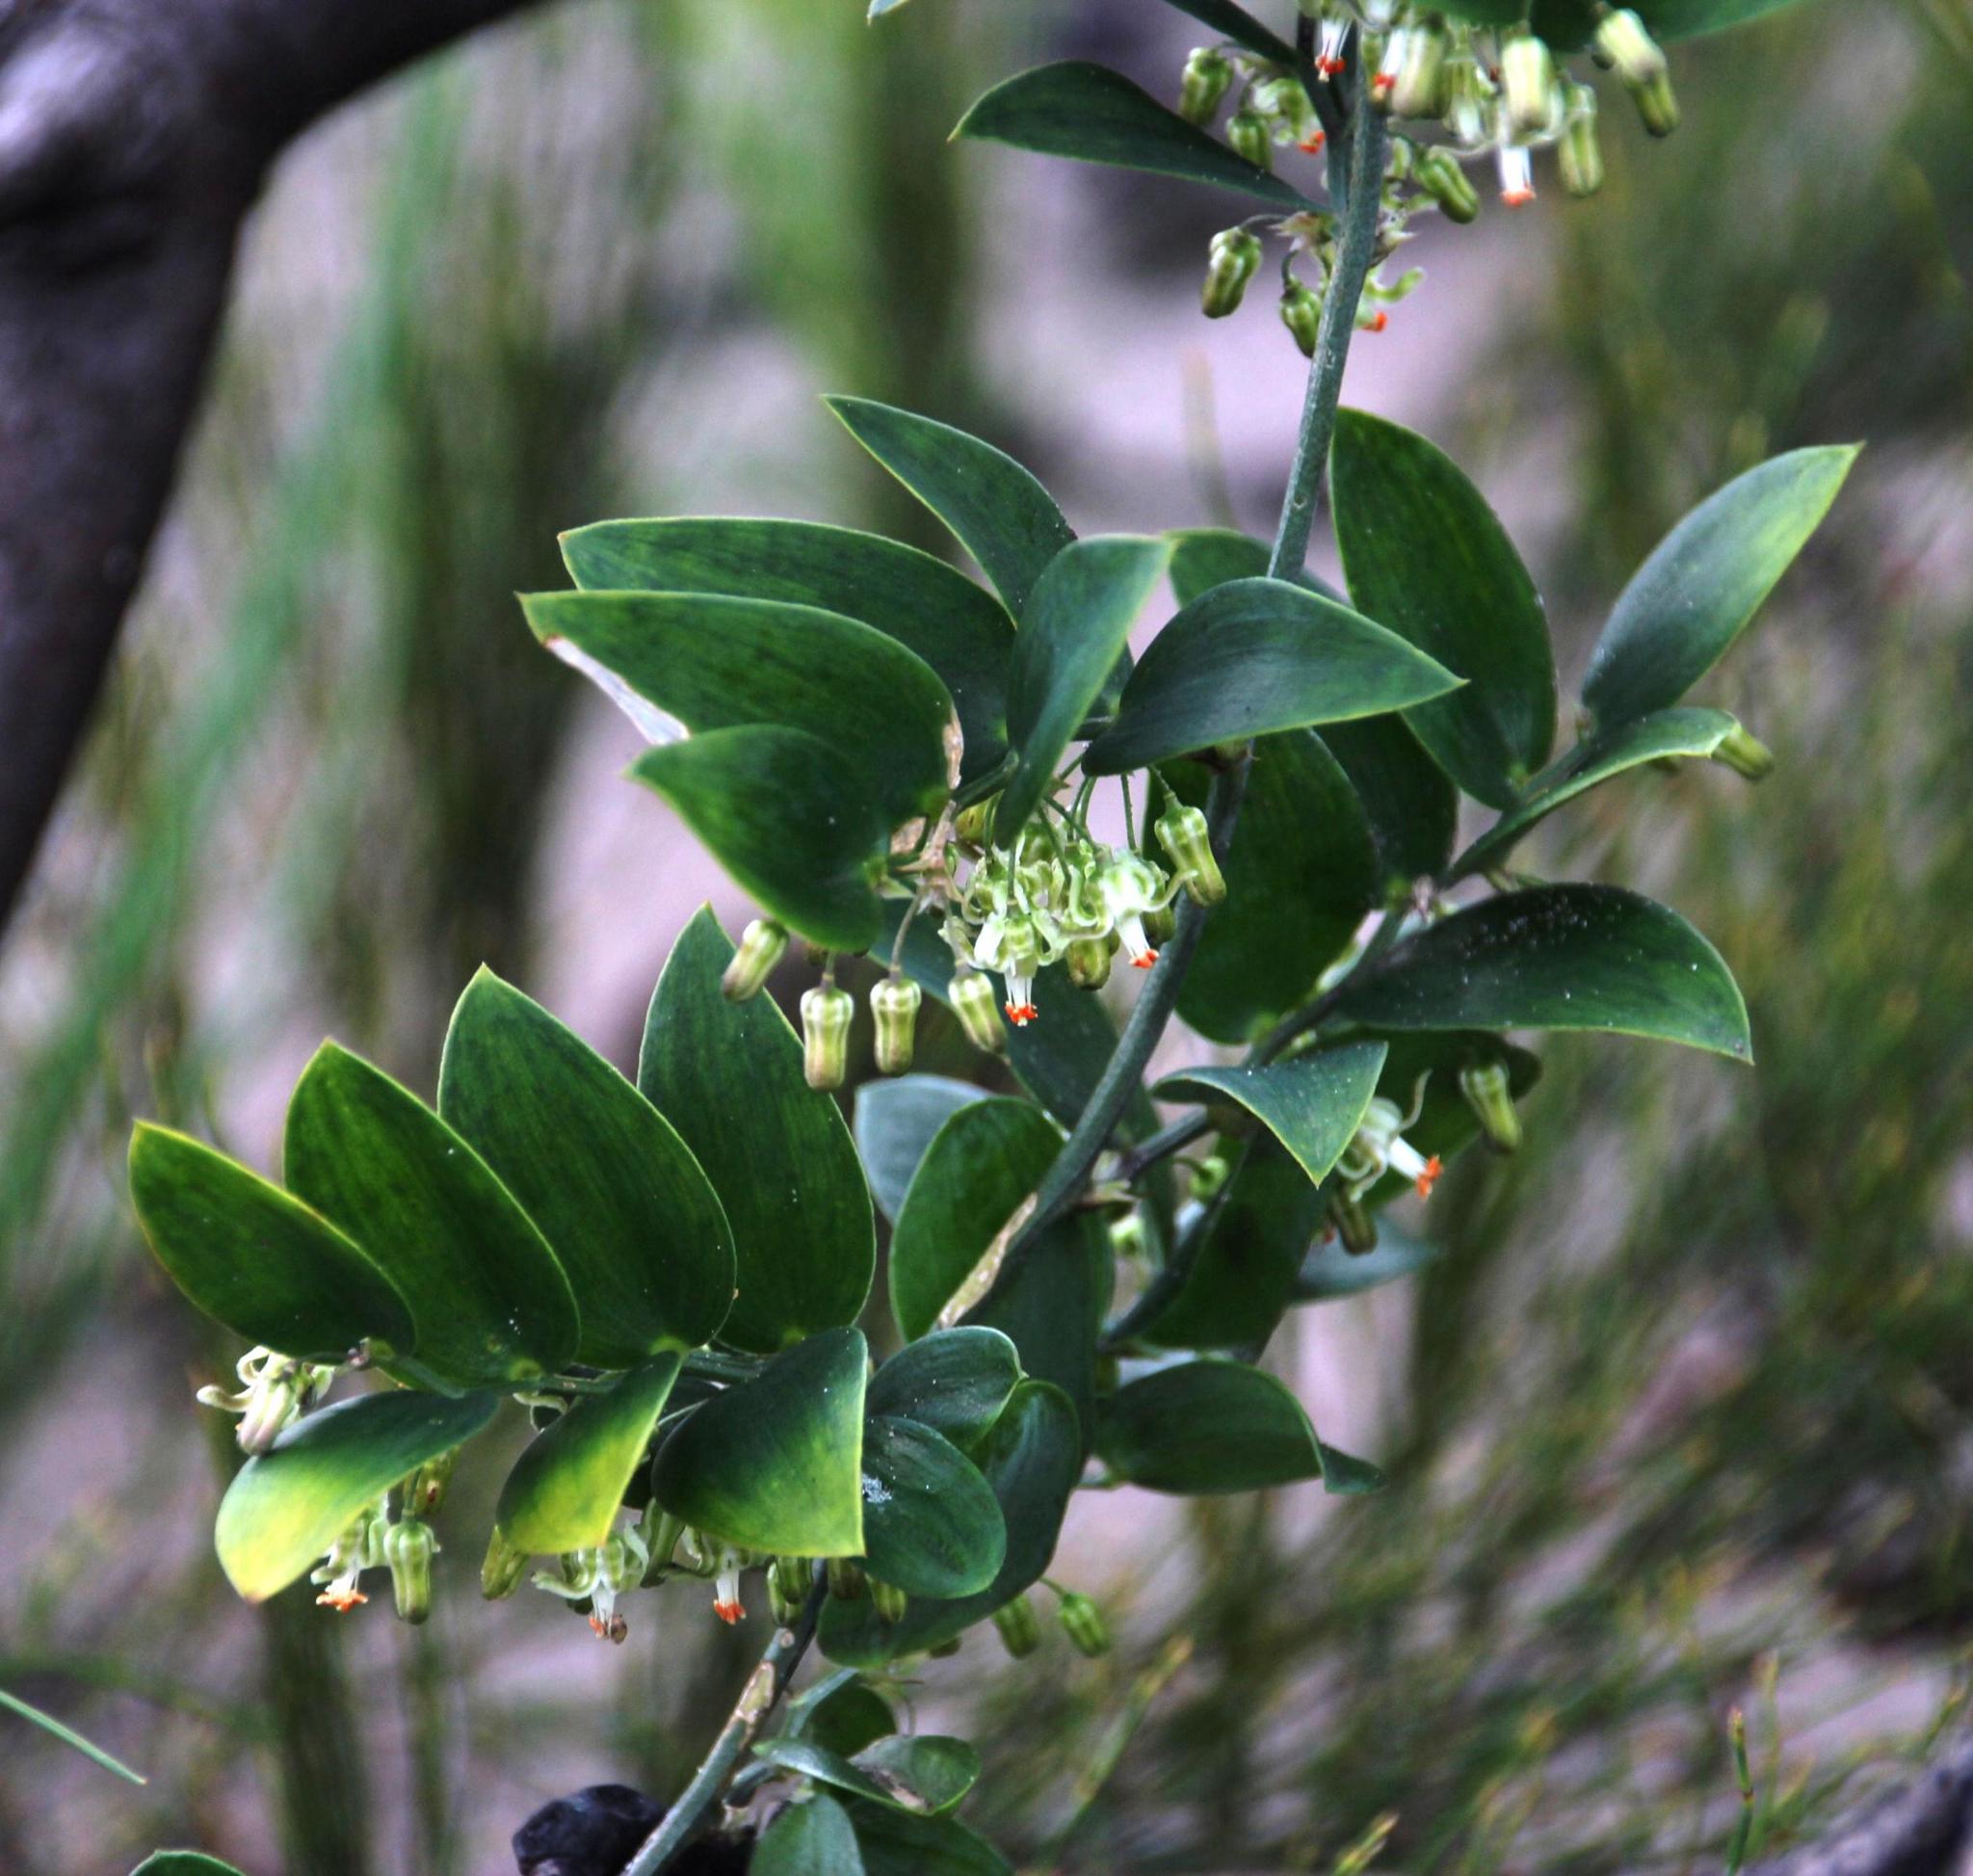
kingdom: Plantae
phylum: Tracheophyta
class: Liliopsida
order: Asparagales
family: Asparagaceae
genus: Asparagus
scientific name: Asparagus ovatus
